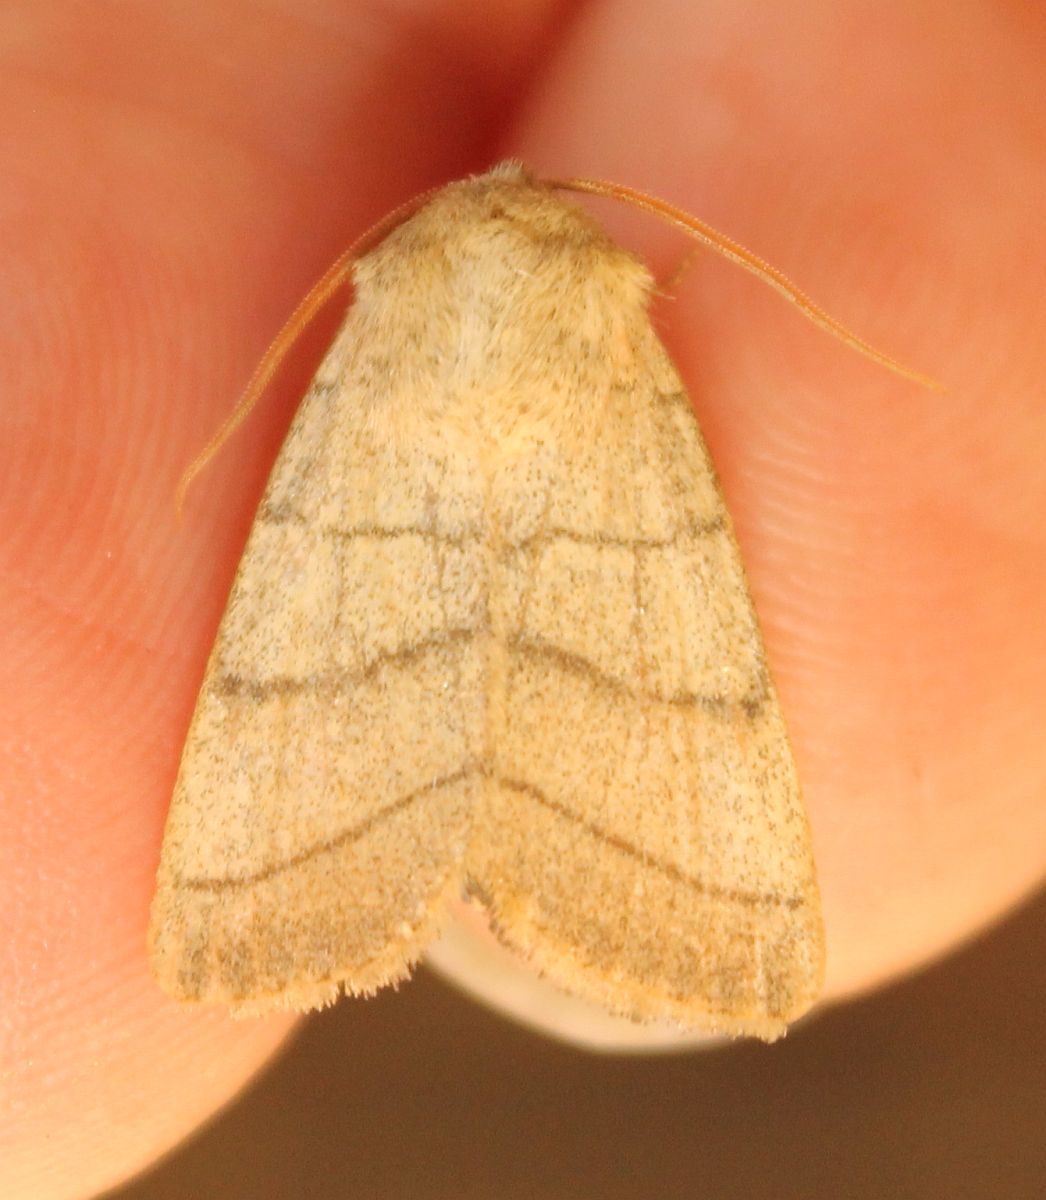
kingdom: Animalia
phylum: Arthropoda
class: Insecta
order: Lepidoptera
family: Noctuidae
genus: Charanyca
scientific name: Charanyca trigrammica
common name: Treble lines
